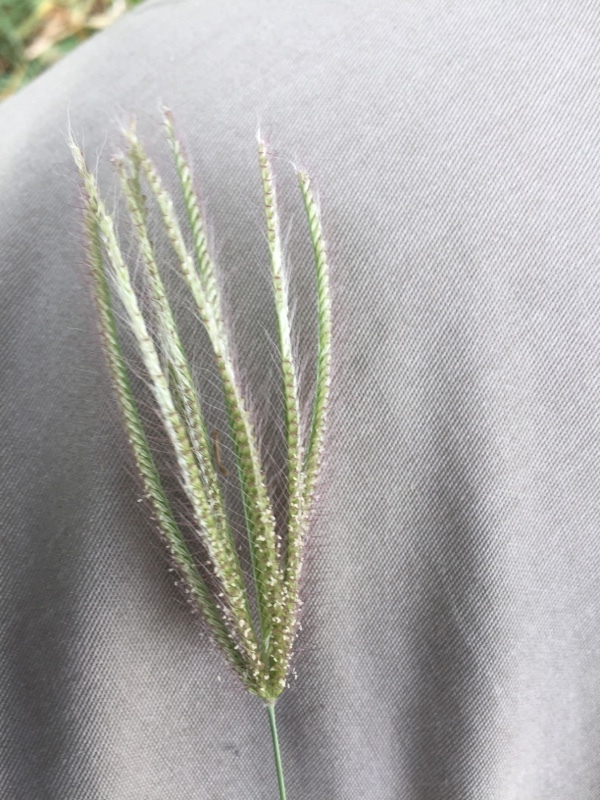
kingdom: Plantae
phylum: Tracheophyta
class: Liliopsida
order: Poales
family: Poaceae
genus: Chloris
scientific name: Chloris virgata
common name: Feathery rhodes-grass
